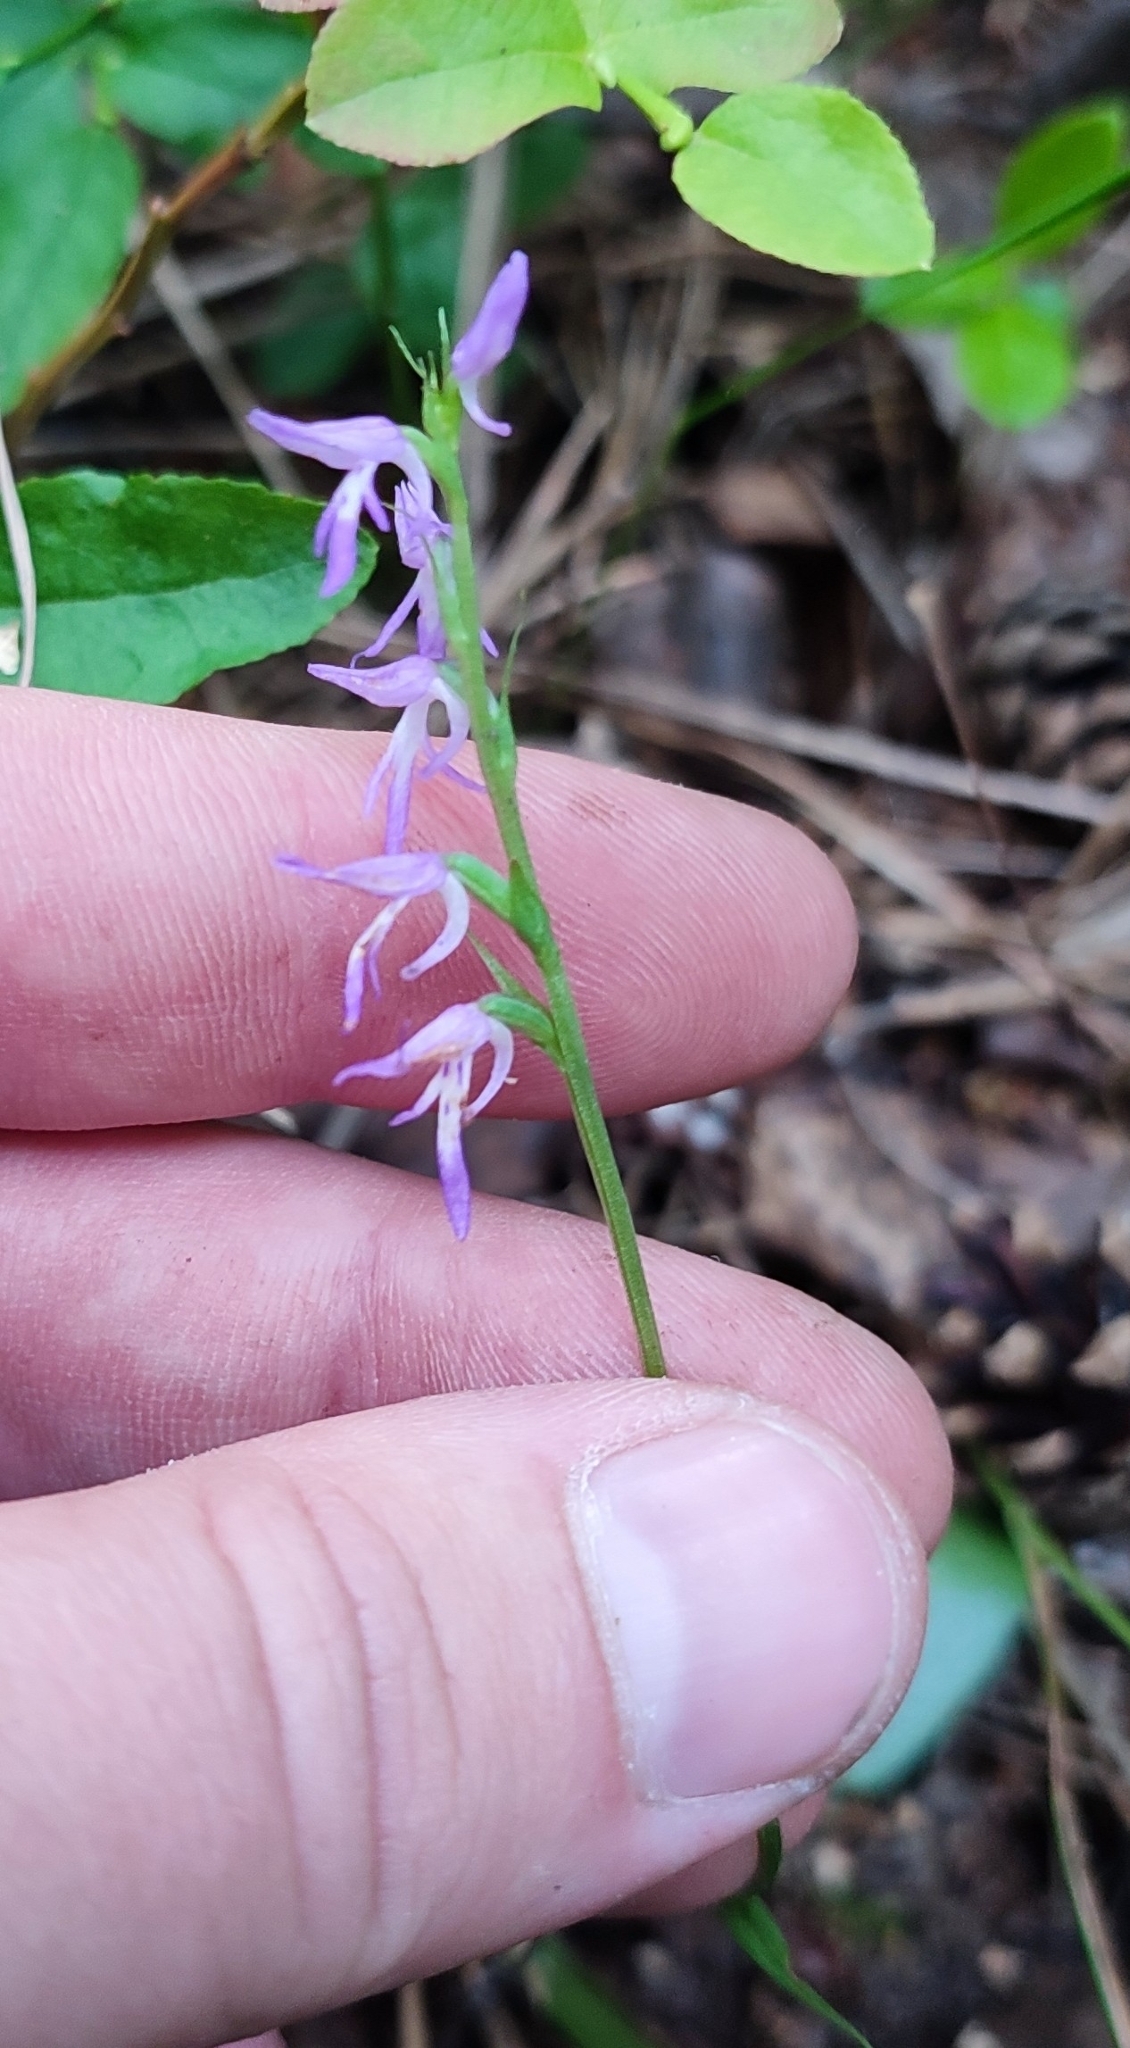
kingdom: Plantae
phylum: Tracheophyta
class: Liliopsida
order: Asparagales
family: Orchidaceae
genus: Hemipilia
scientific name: Hemipilia cucullata
